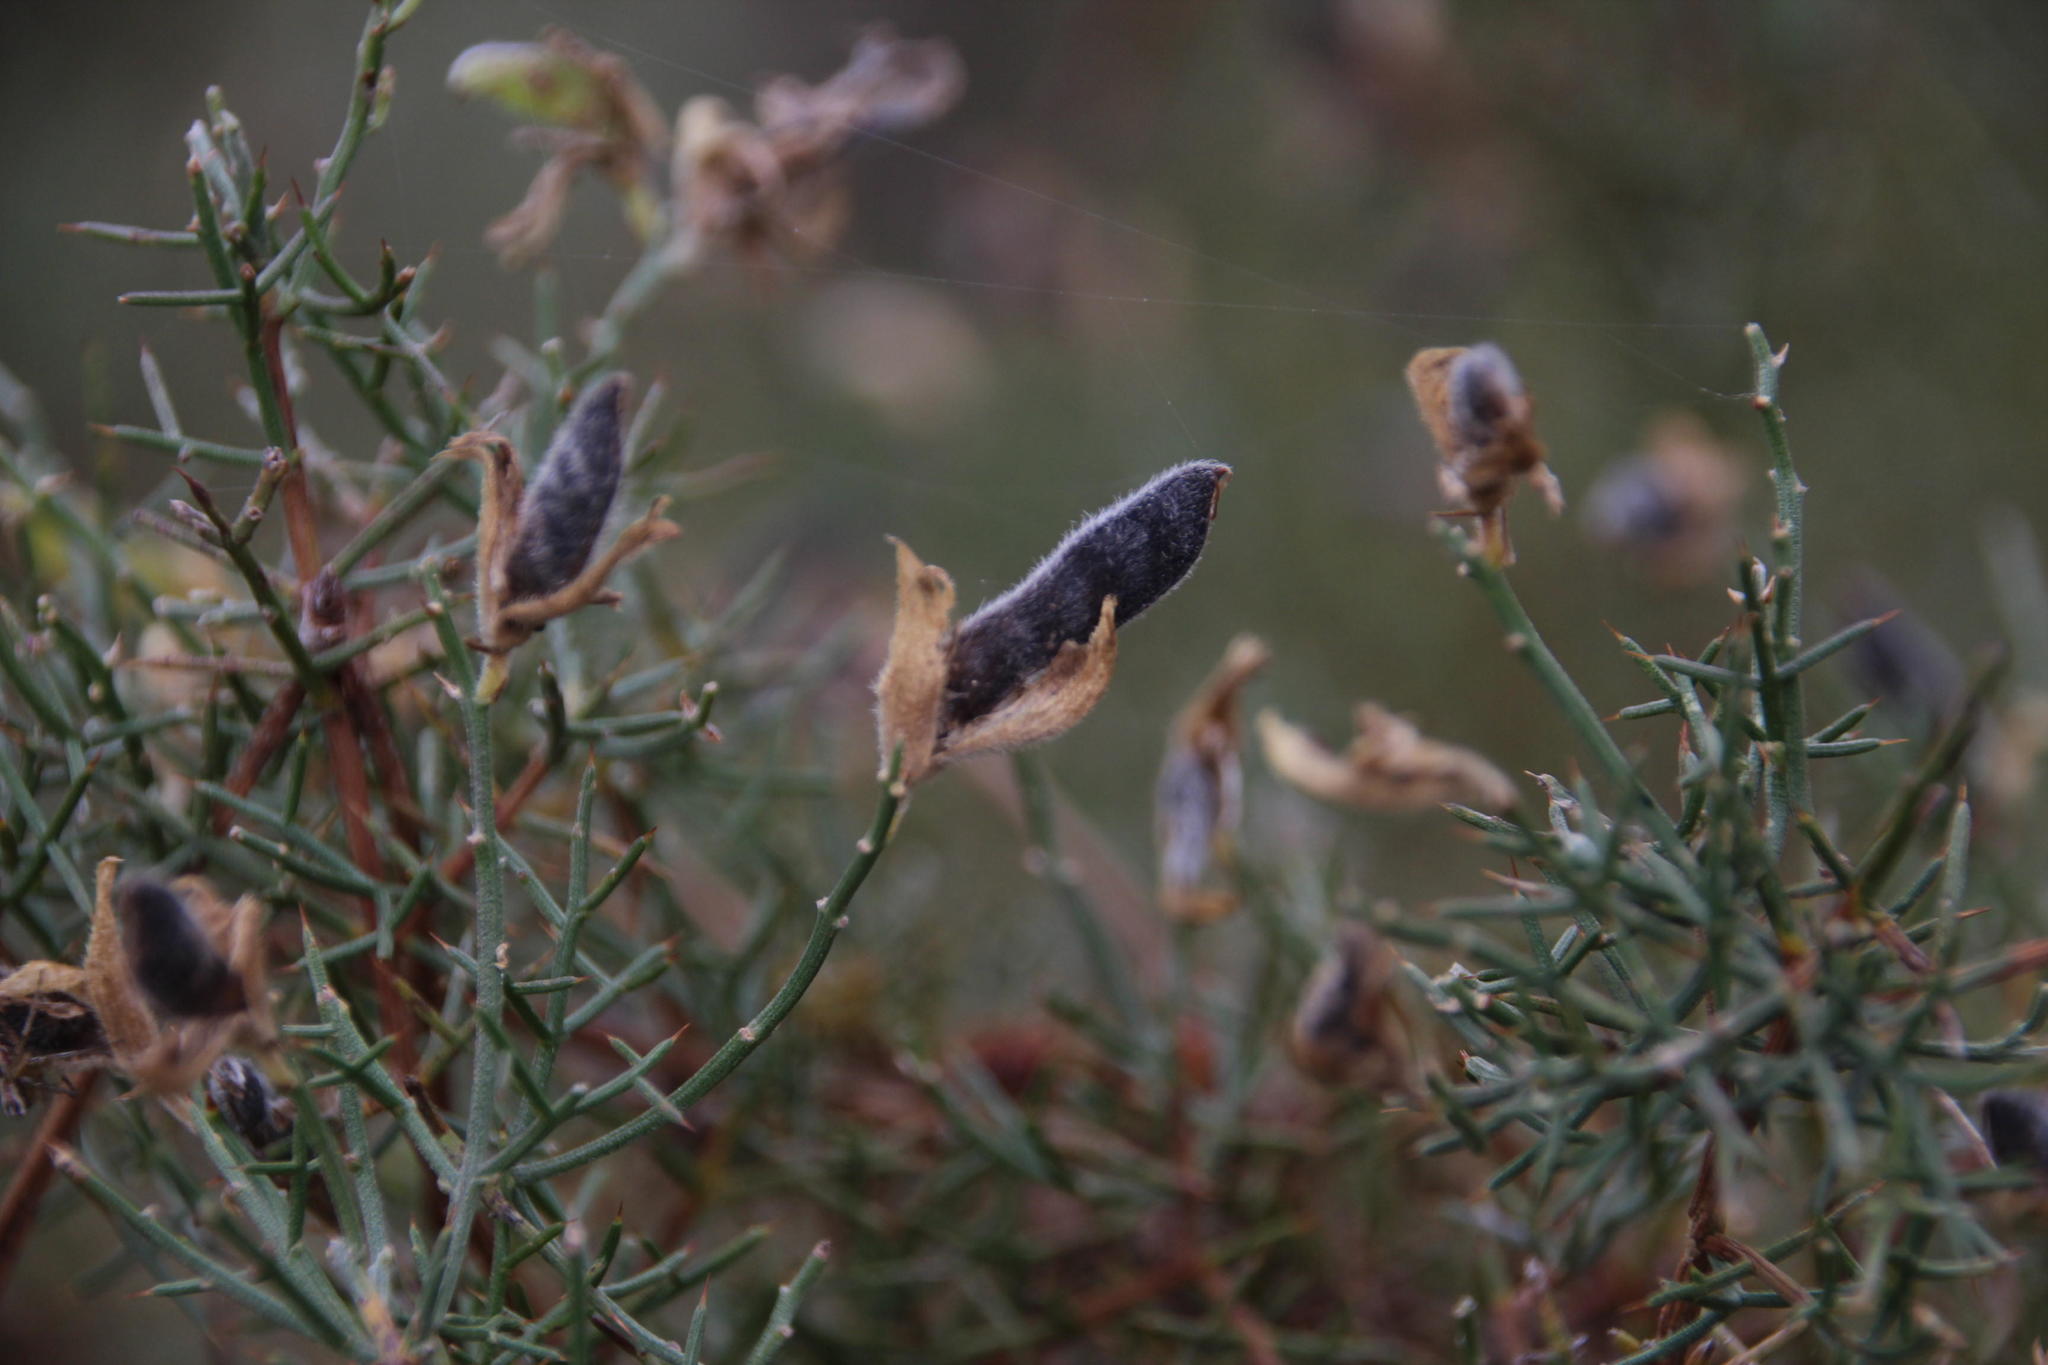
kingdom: Plantae
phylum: Tracheophyta
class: Magnoliopsida
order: Fabales
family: Fabaceae
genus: Stauracanthus
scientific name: Stauracanthus genistoides
